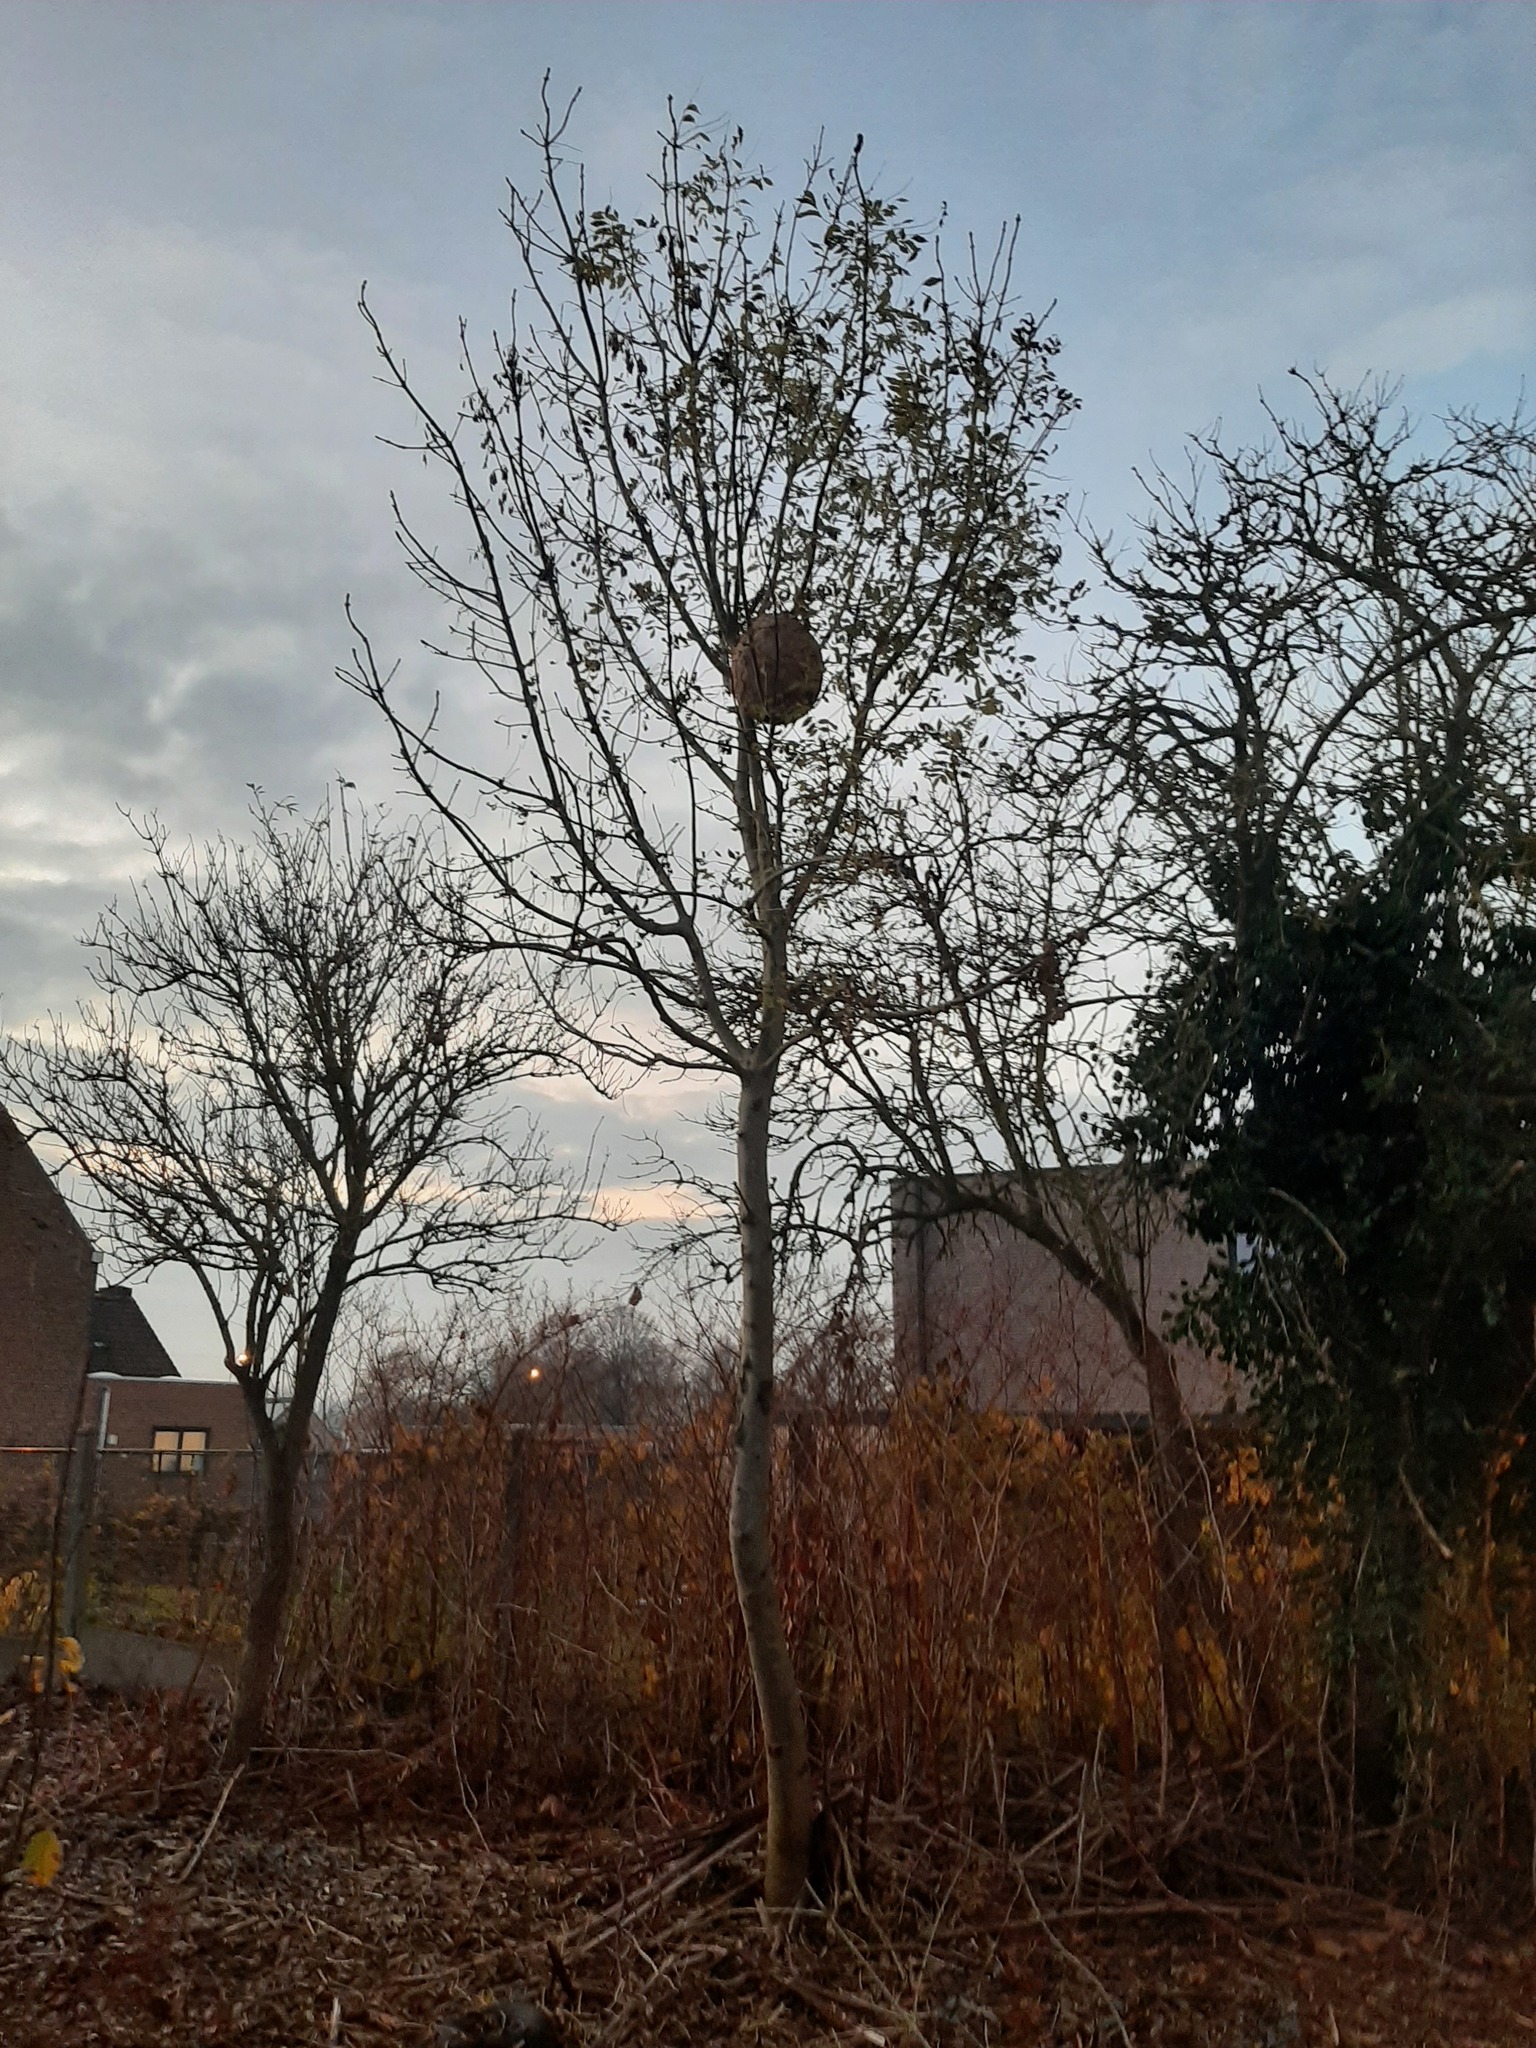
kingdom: Animalia
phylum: Arthropoda
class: Insecta
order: Hymenoptera
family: Vespidae
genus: Vespa
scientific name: Vespa velutina
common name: Asian hornet
